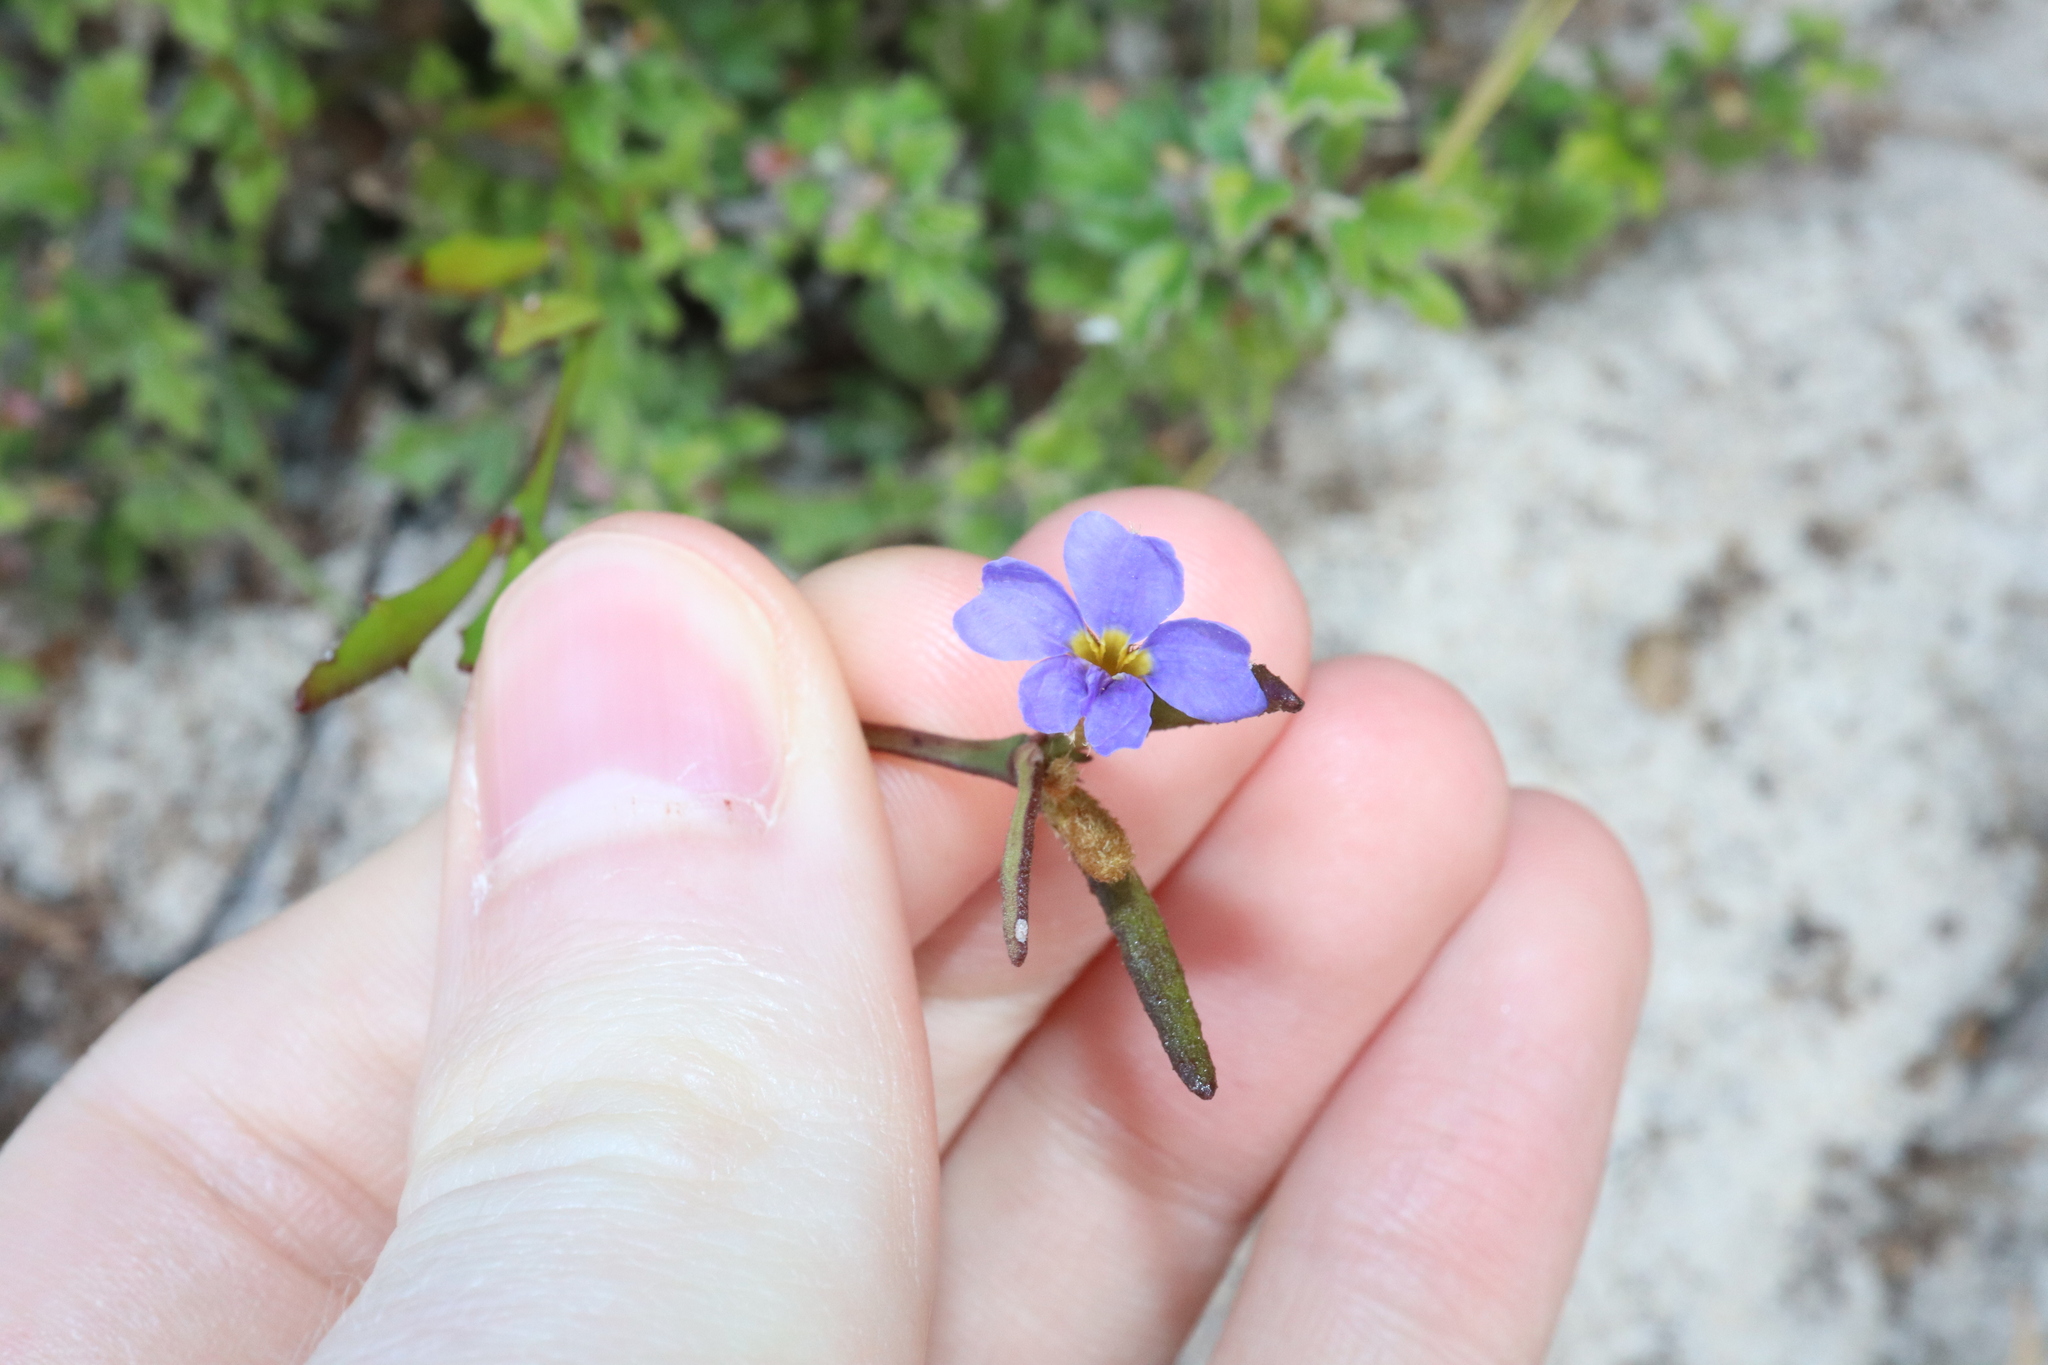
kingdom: Plantae
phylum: Tracheophyta
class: Magnoliopsida
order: Asterales
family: Goodeniaceae
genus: Dampiera
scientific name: Dampiera stricta
